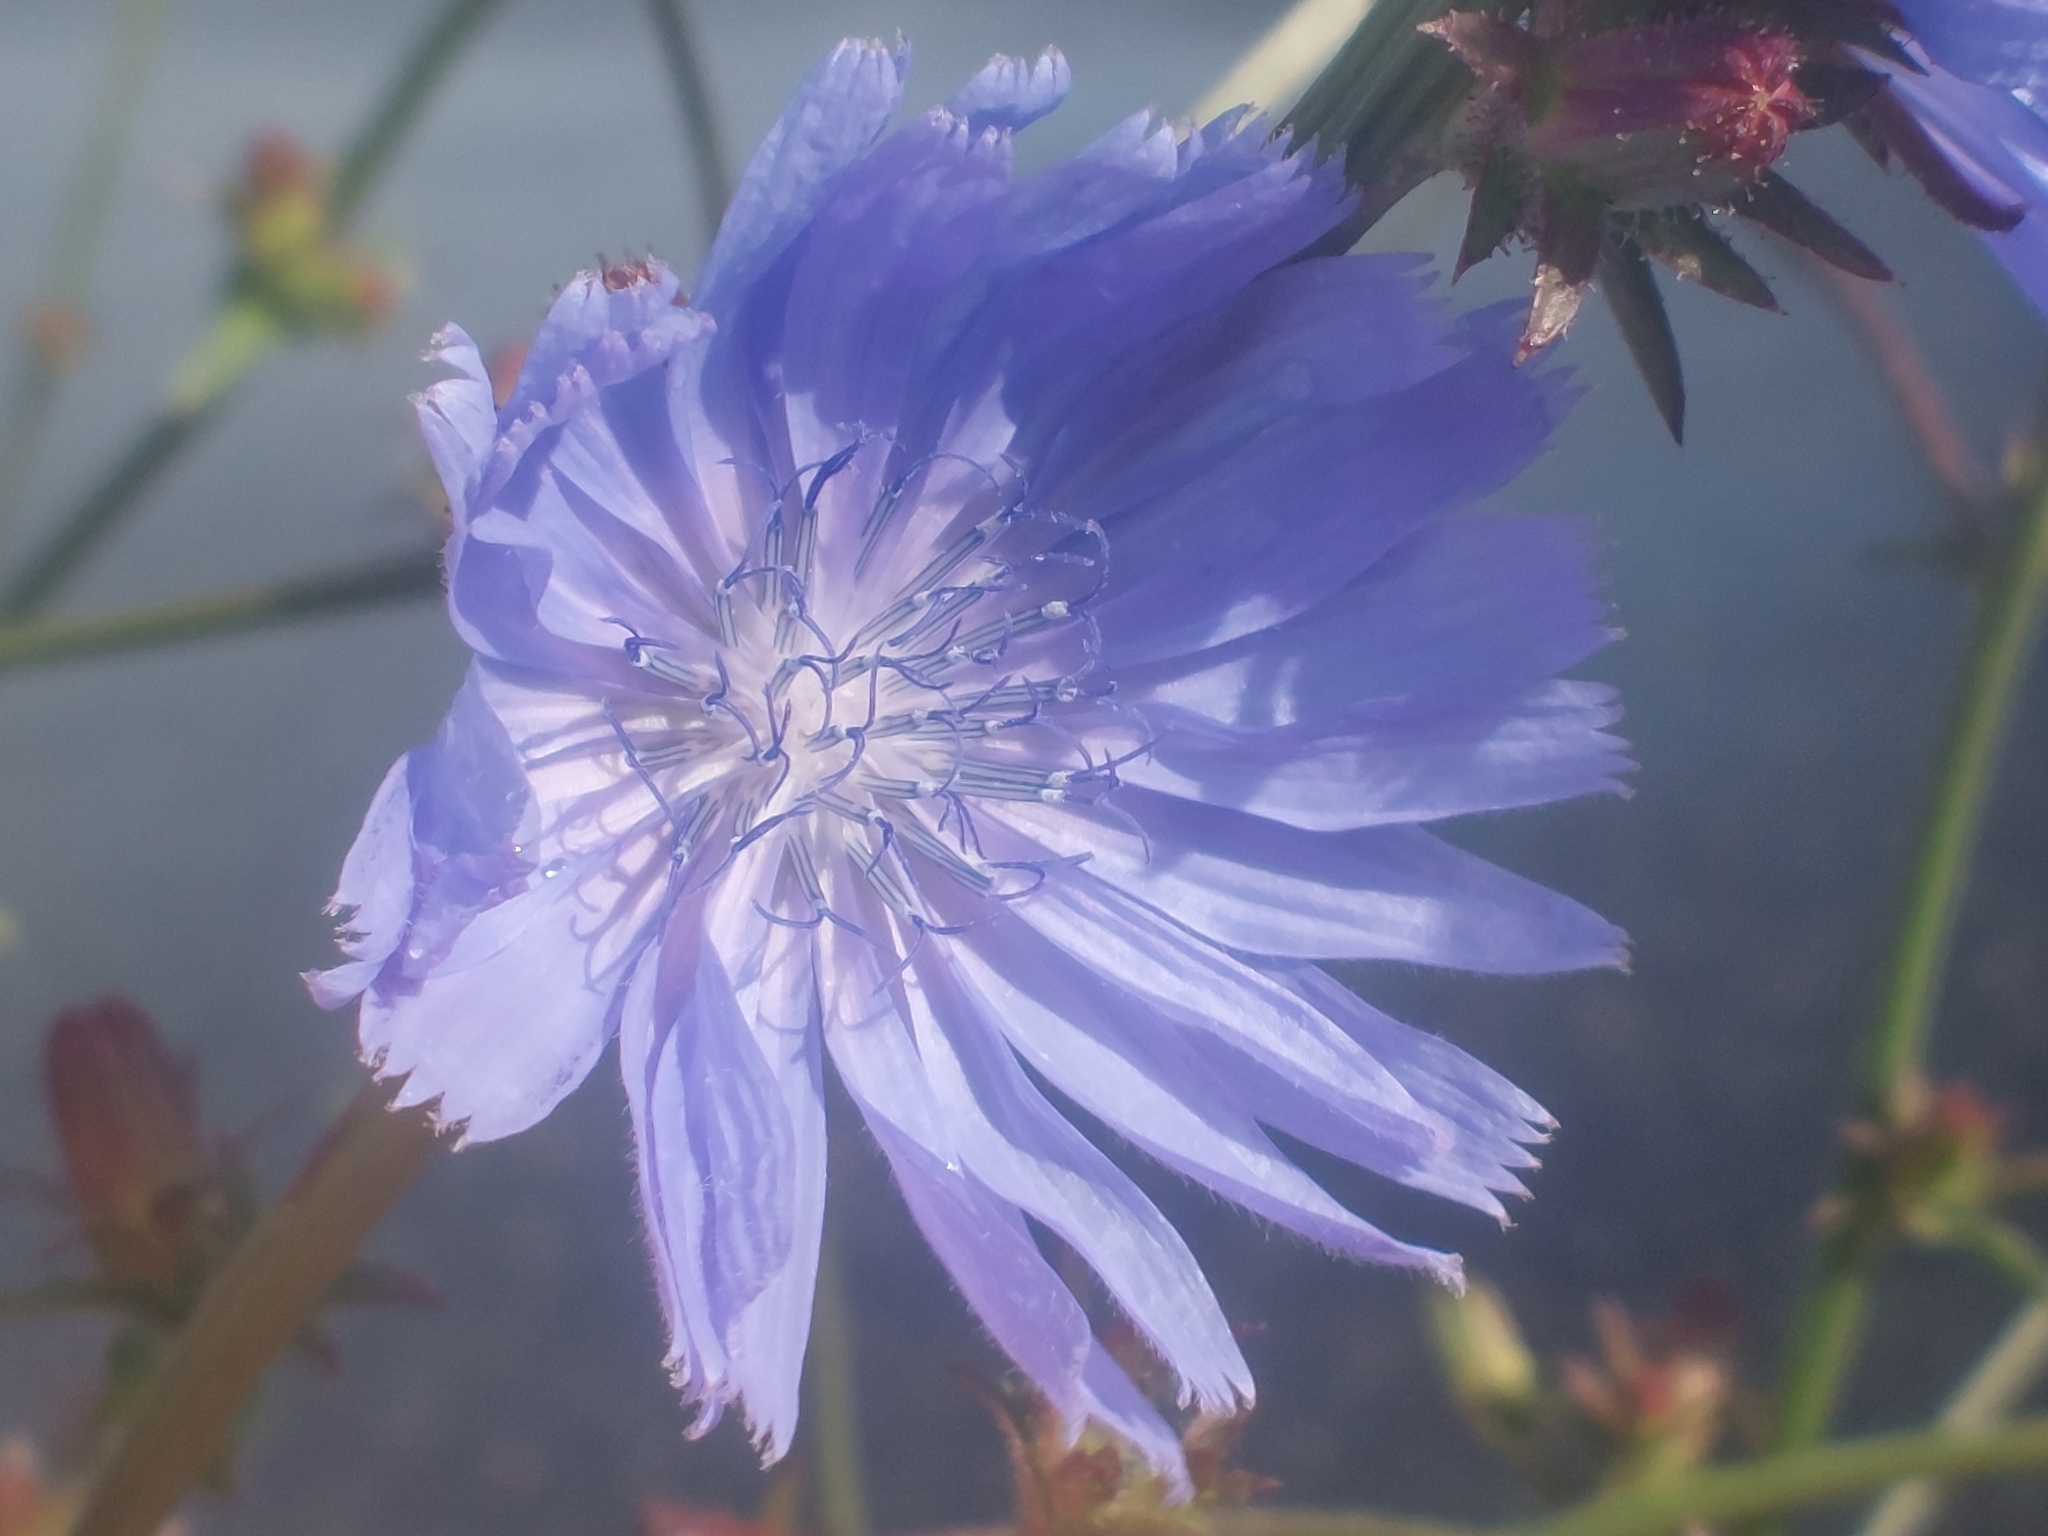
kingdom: Plantae
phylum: Tracheophyta
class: Magnoliopsida
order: Asterales
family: Asteraceae
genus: Cichorium
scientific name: Cichorium intybus
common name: Chicory
